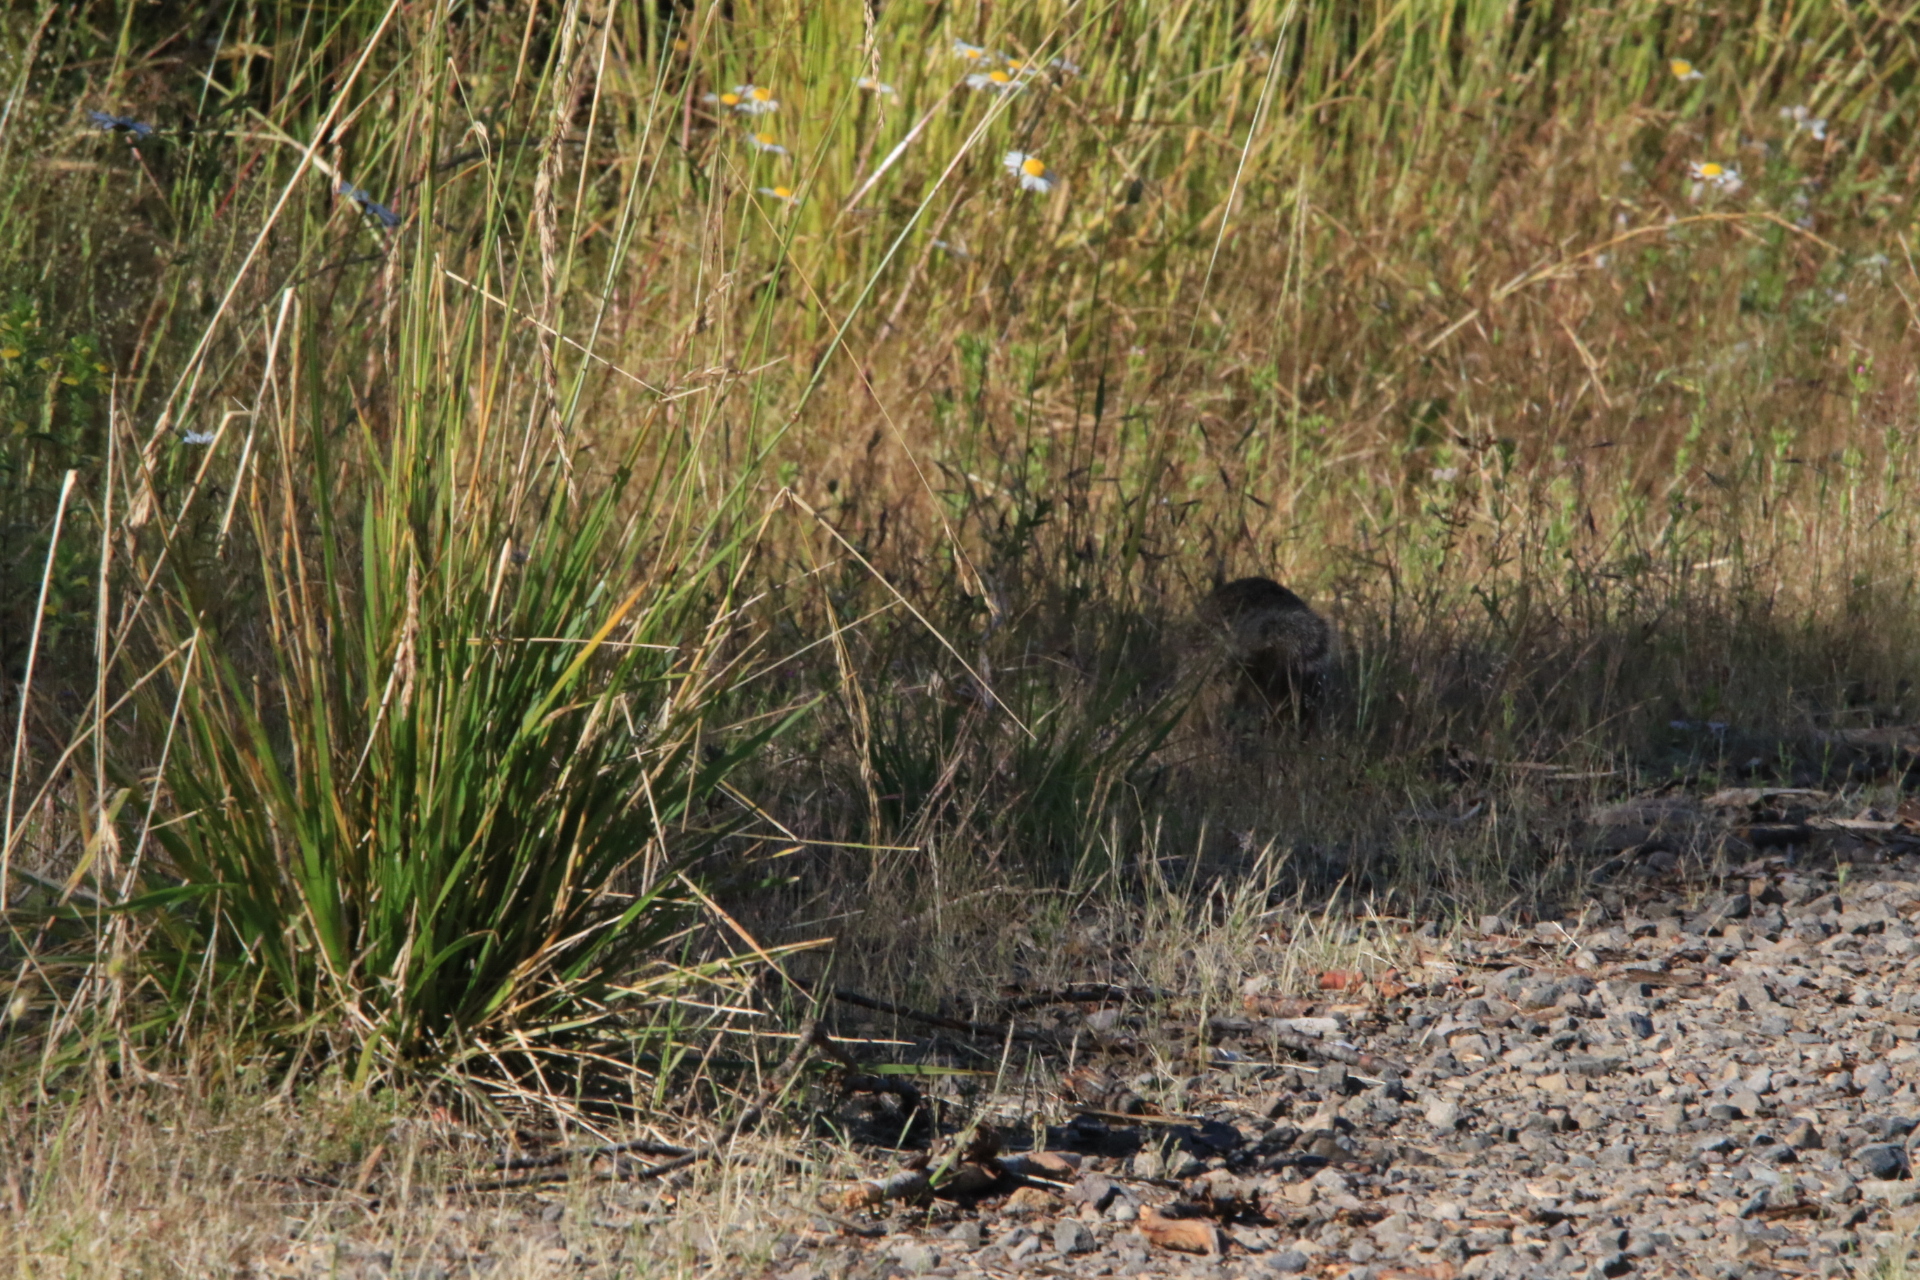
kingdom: Animalia
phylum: Chordata
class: Mammalia
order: Rodentia
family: Sciuridae
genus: Otospermophilus
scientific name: Otospermophilus beecheyi
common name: California ground squirrel
